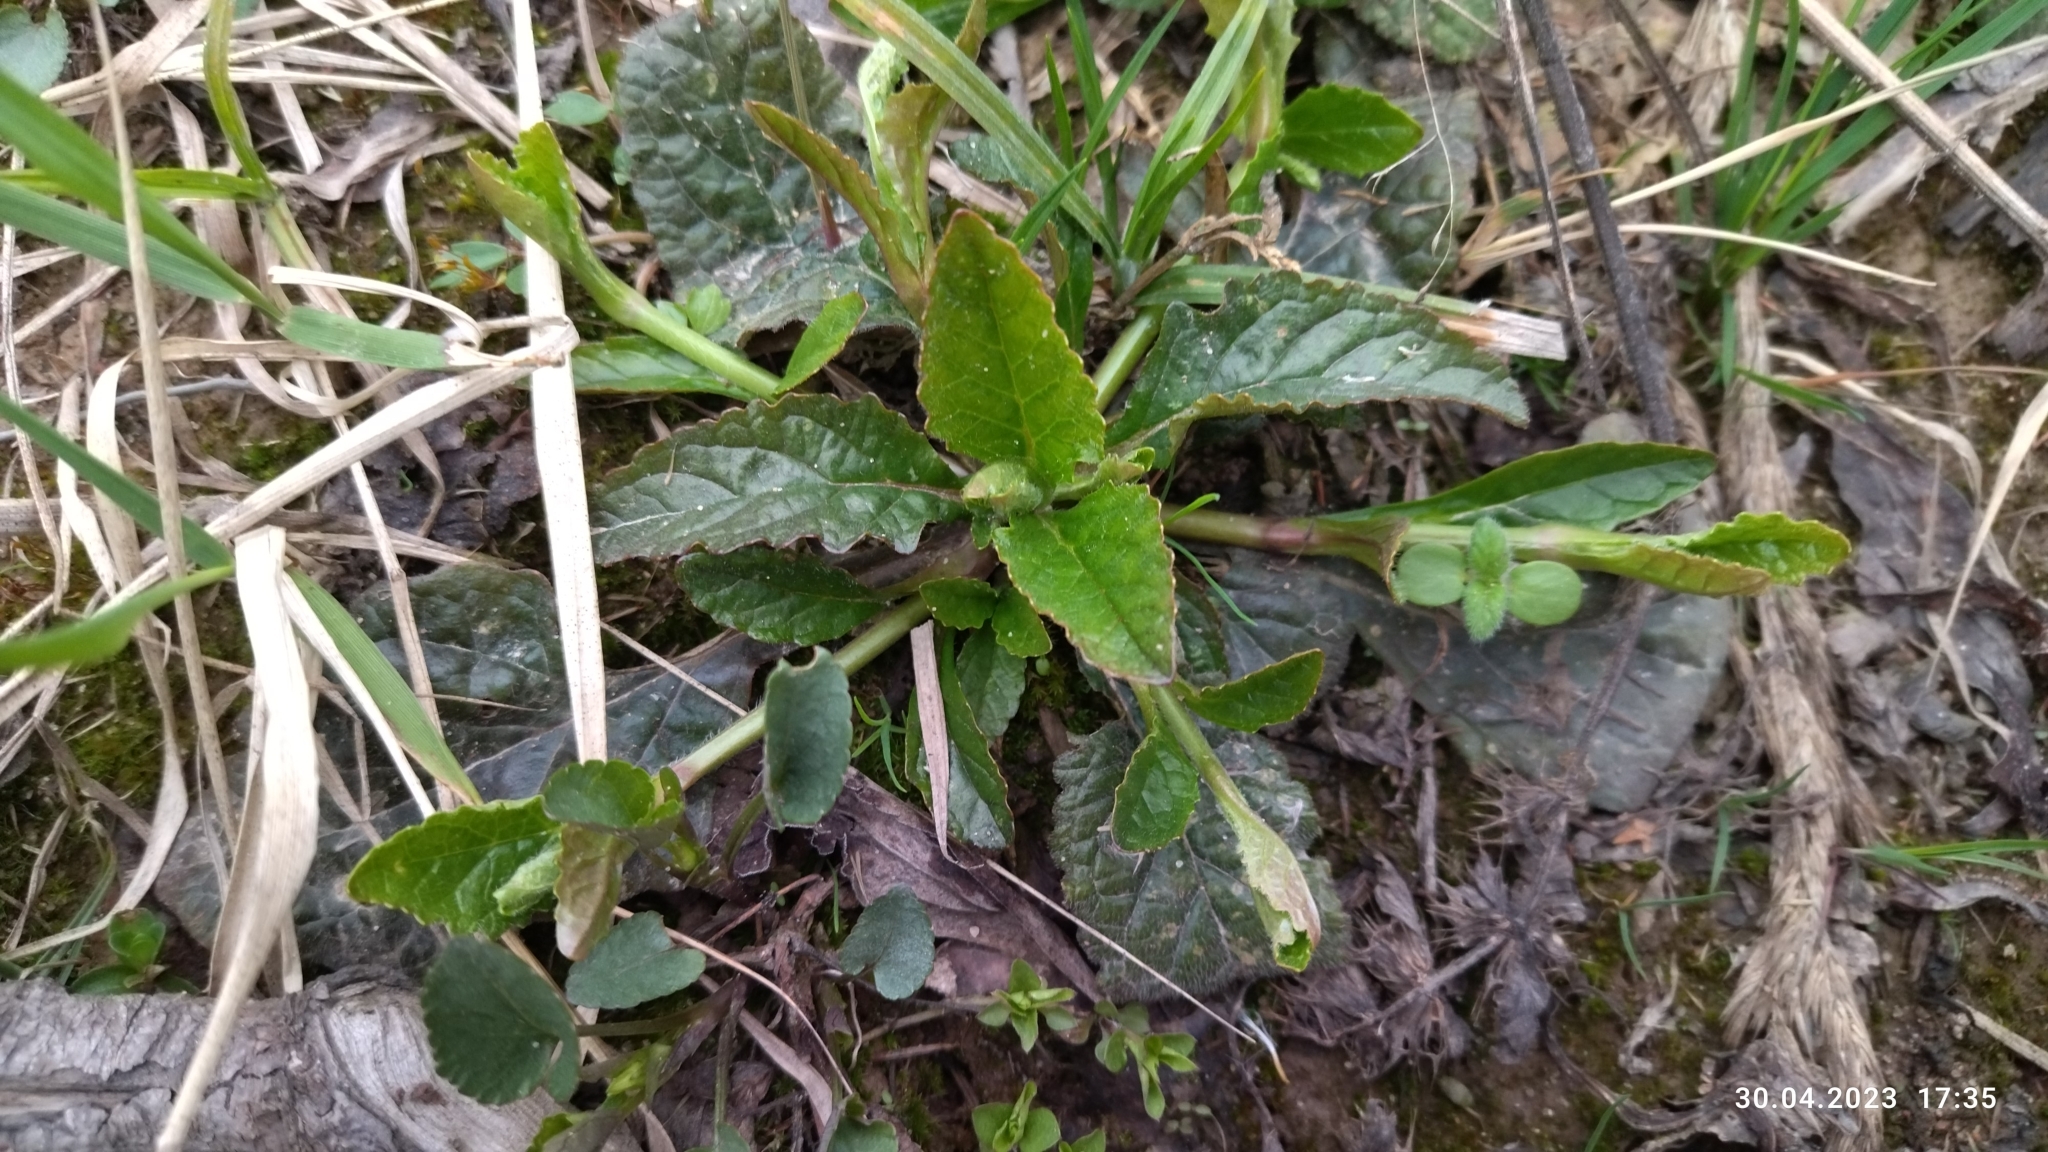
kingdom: Plantae
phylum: Tracheophyta
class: Magnoliopsida
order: Lamiales
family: Lamiaceae
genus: Ajuga
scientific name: Ajuga reptans
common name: Bugle
